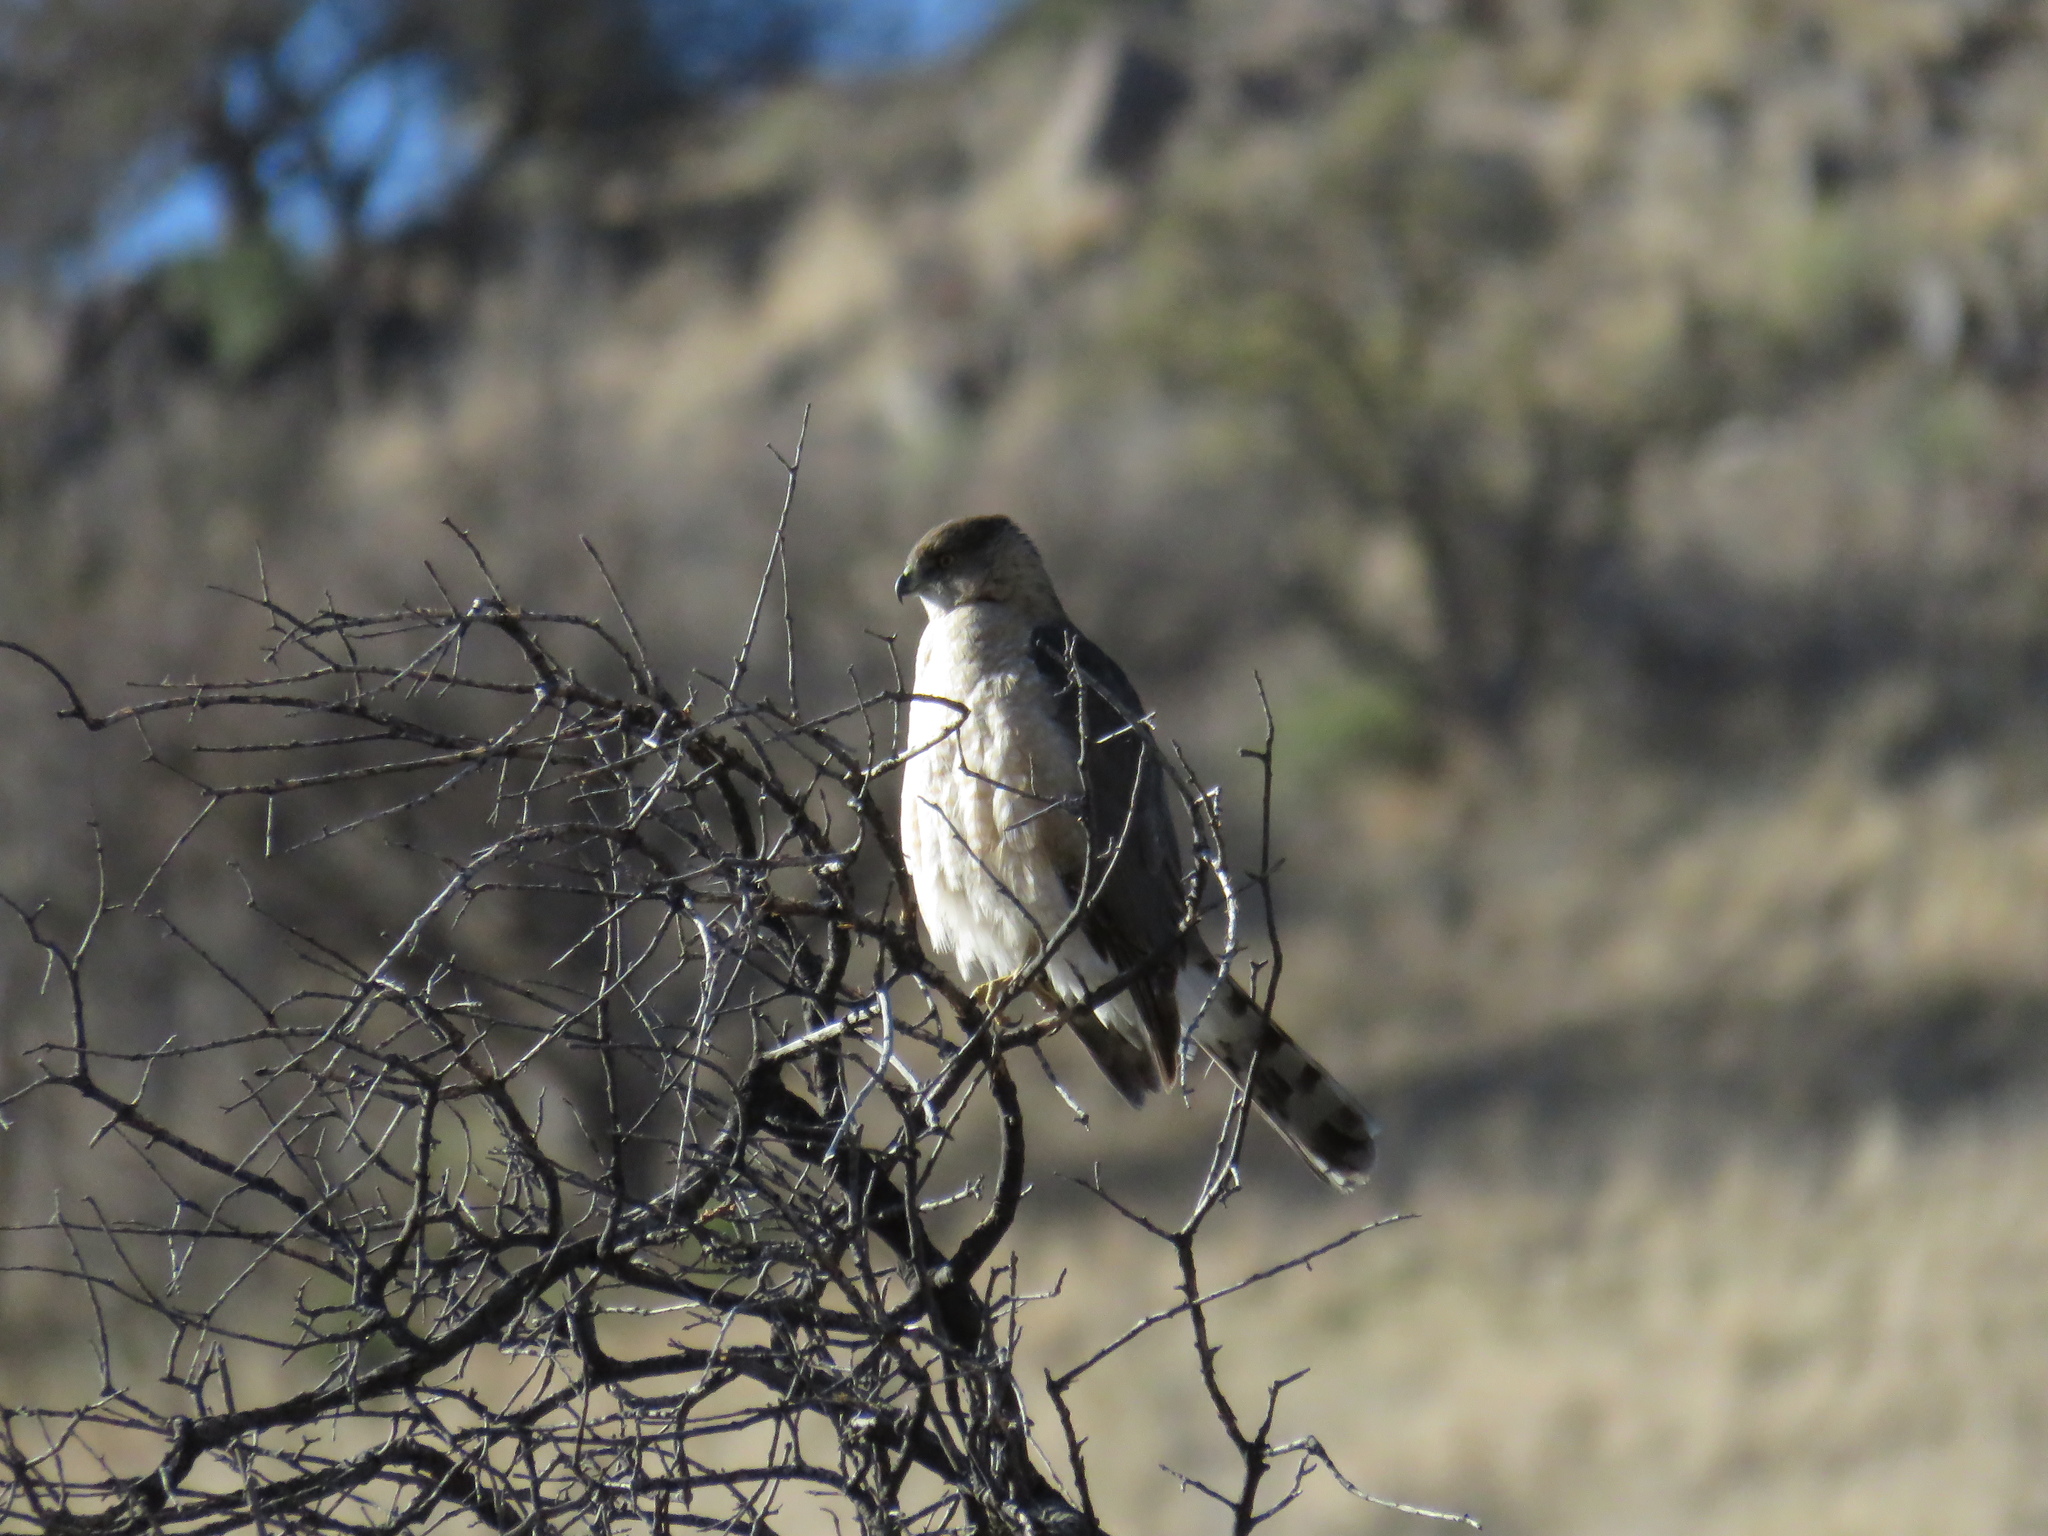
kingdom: Animalia
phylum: Chordata
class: Aves
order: Accipitriformes
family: Accipitridae
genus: Accipiter
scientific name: Accipiter cooperii
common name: Cooper's hawk
